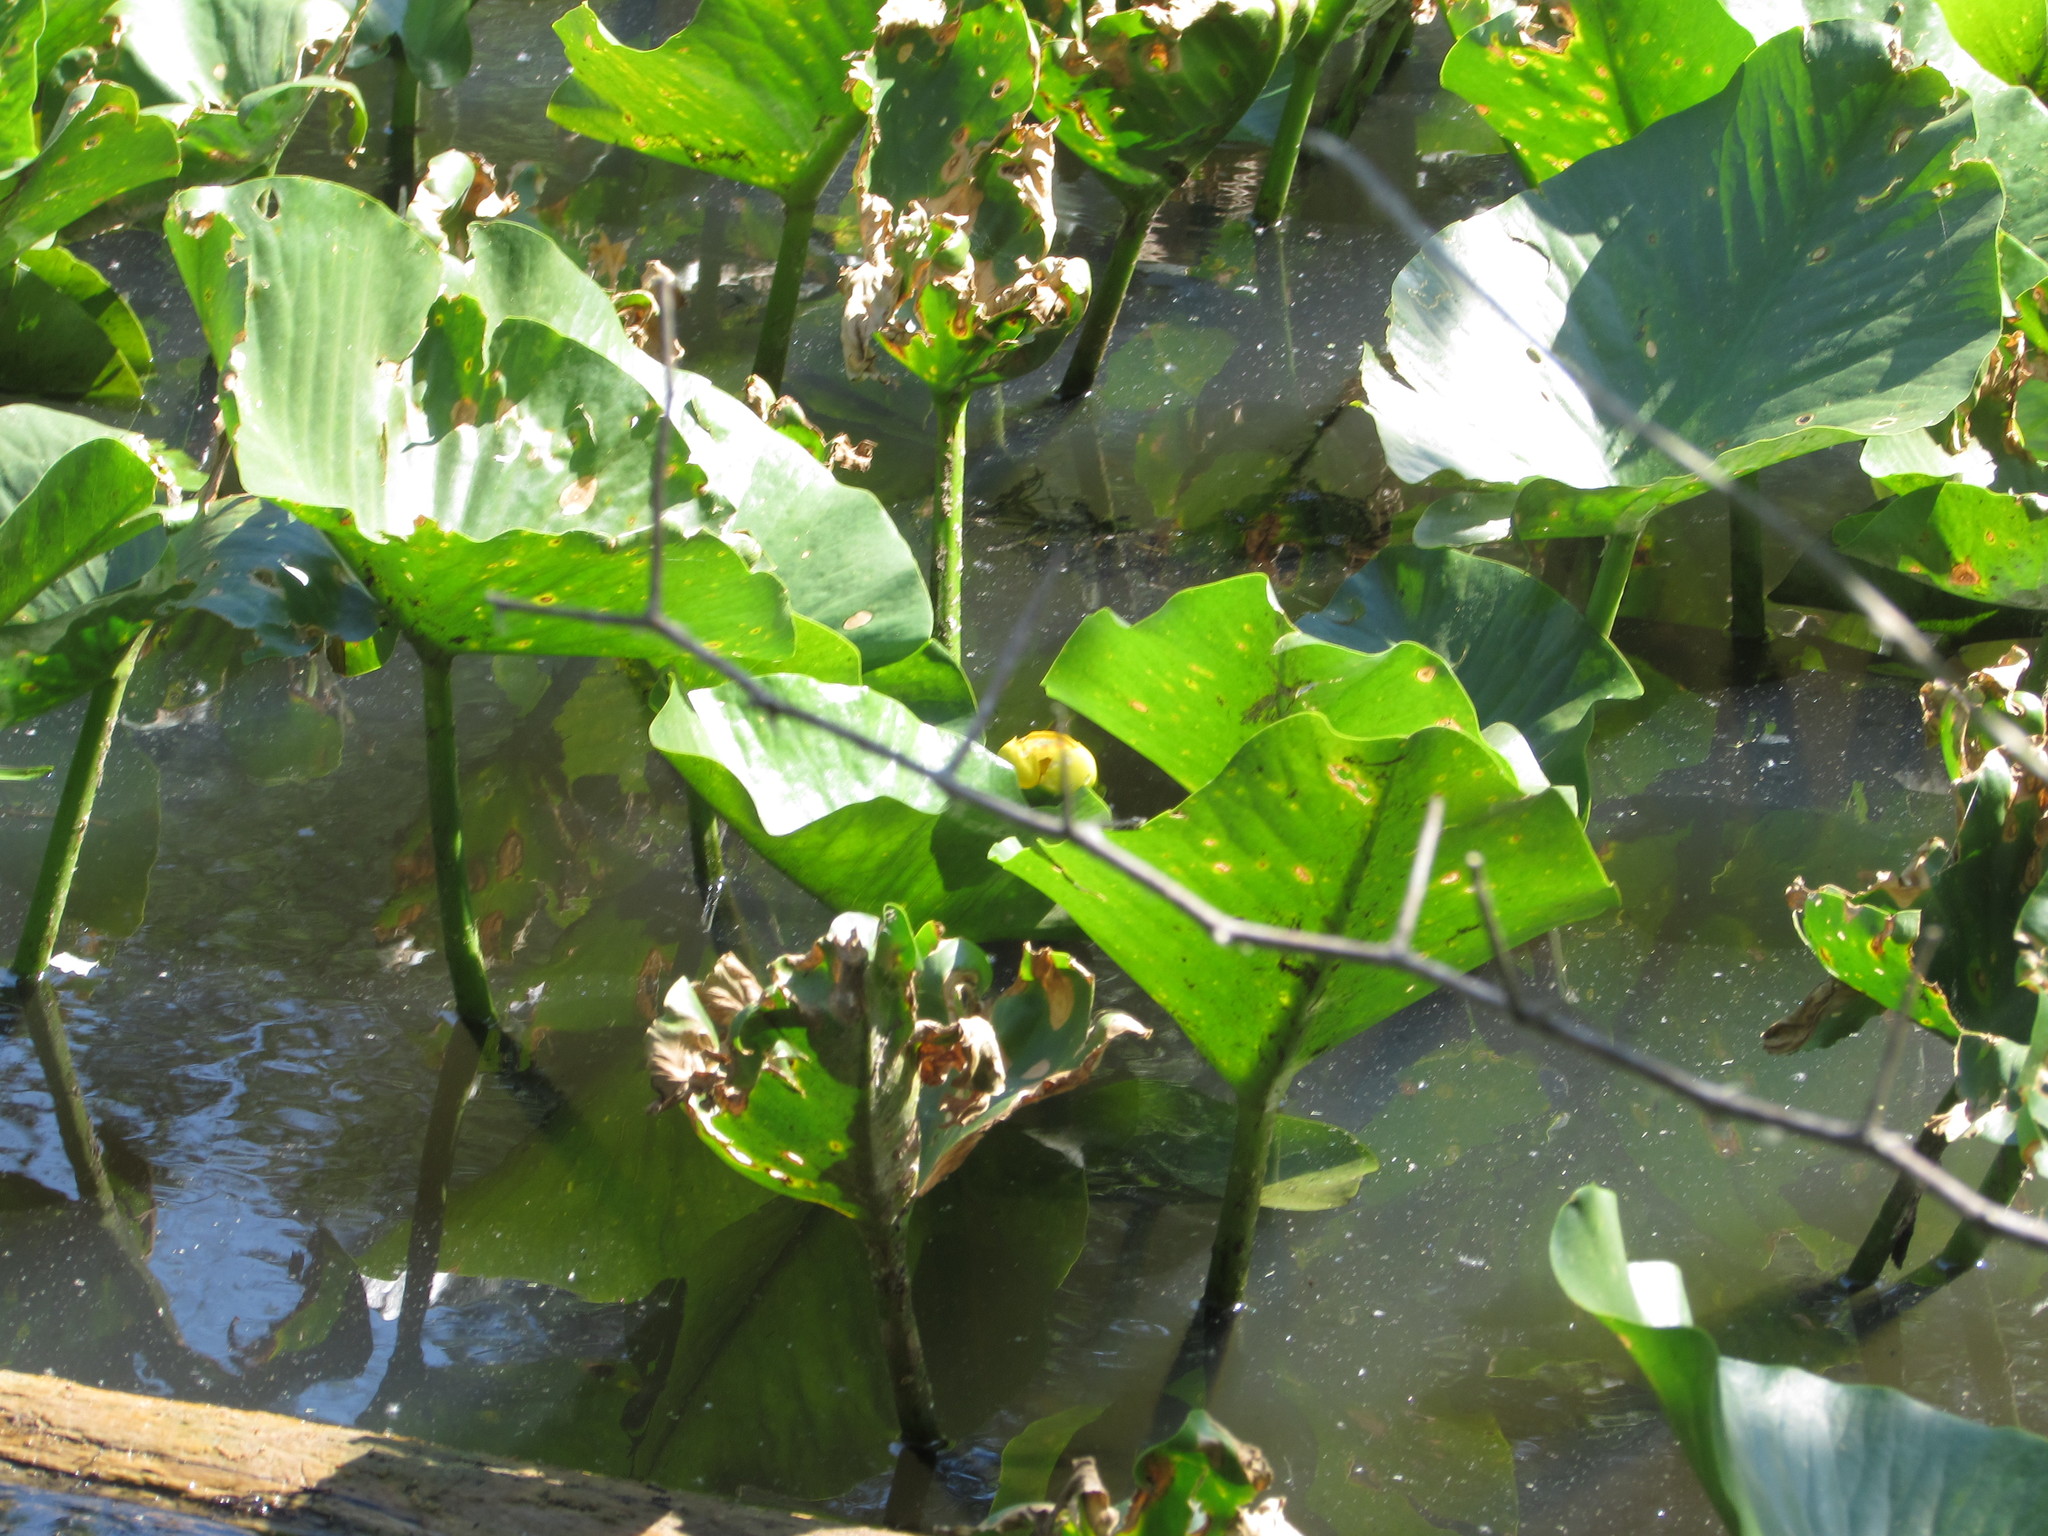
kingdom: Plantae
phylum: Tracheophyta
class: Magnoliopsida
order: Nymphaeales
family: Nymphaeaceae
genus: Nuphar
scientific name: Nuphar advena
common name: Spatter-dock
